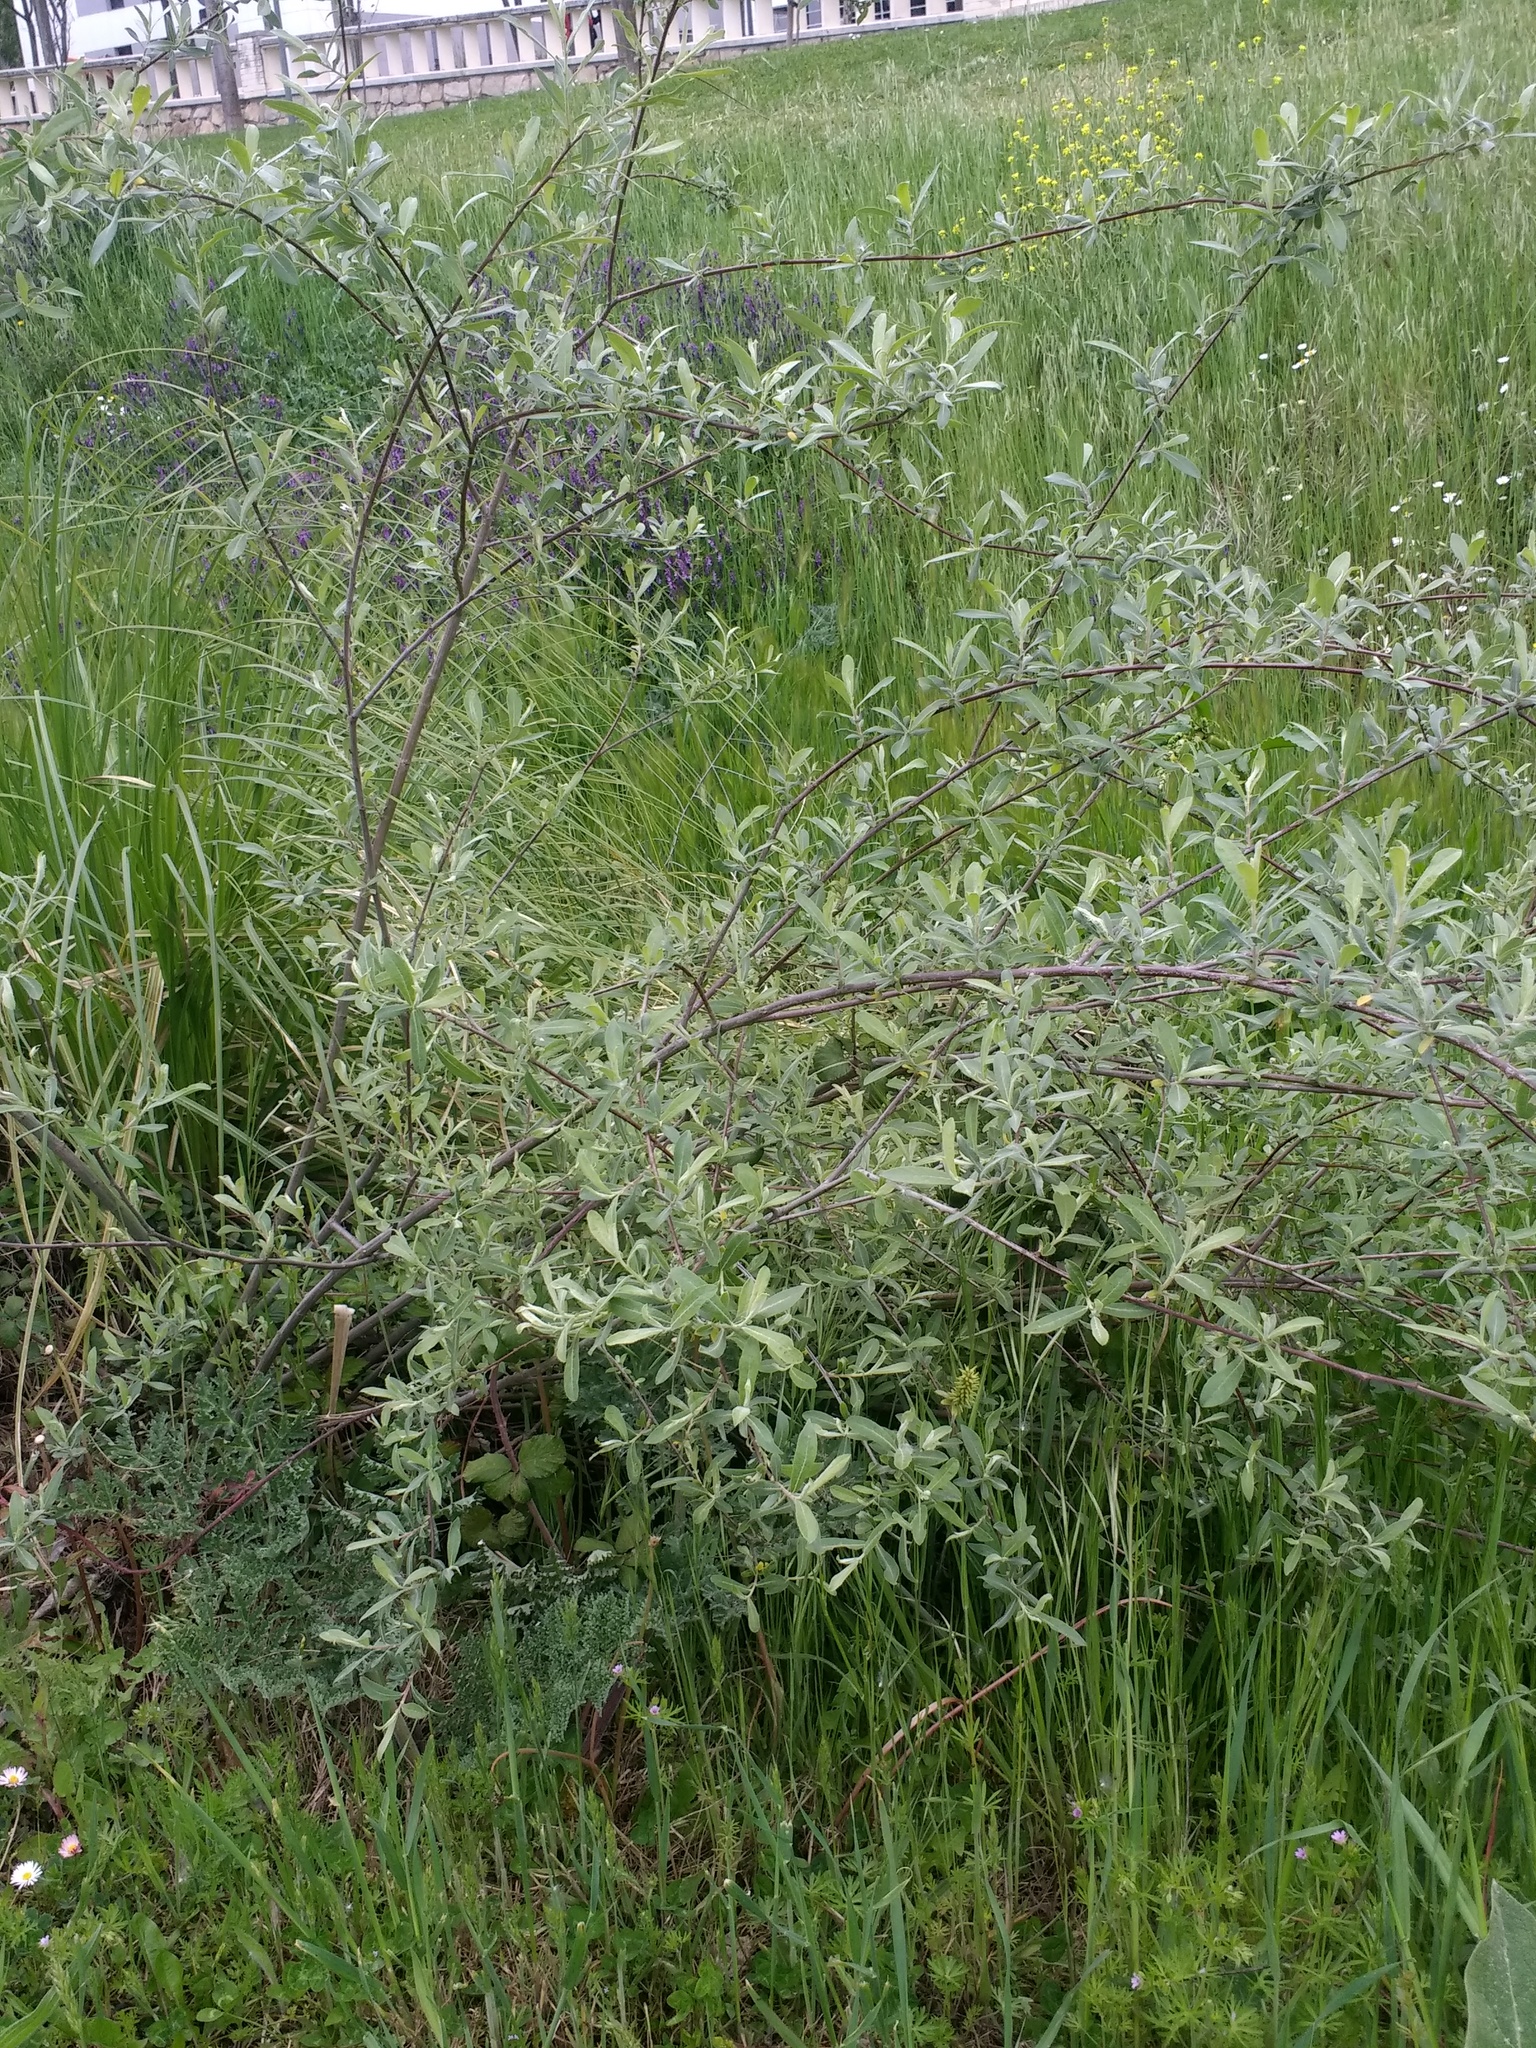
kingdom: Plantae
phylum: Tracheophyta
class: Magnoliopsida
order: Malpighiales
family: Salicaceae
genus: Salix
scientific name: Salix salviifolia
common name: Salvia-leaf willow
